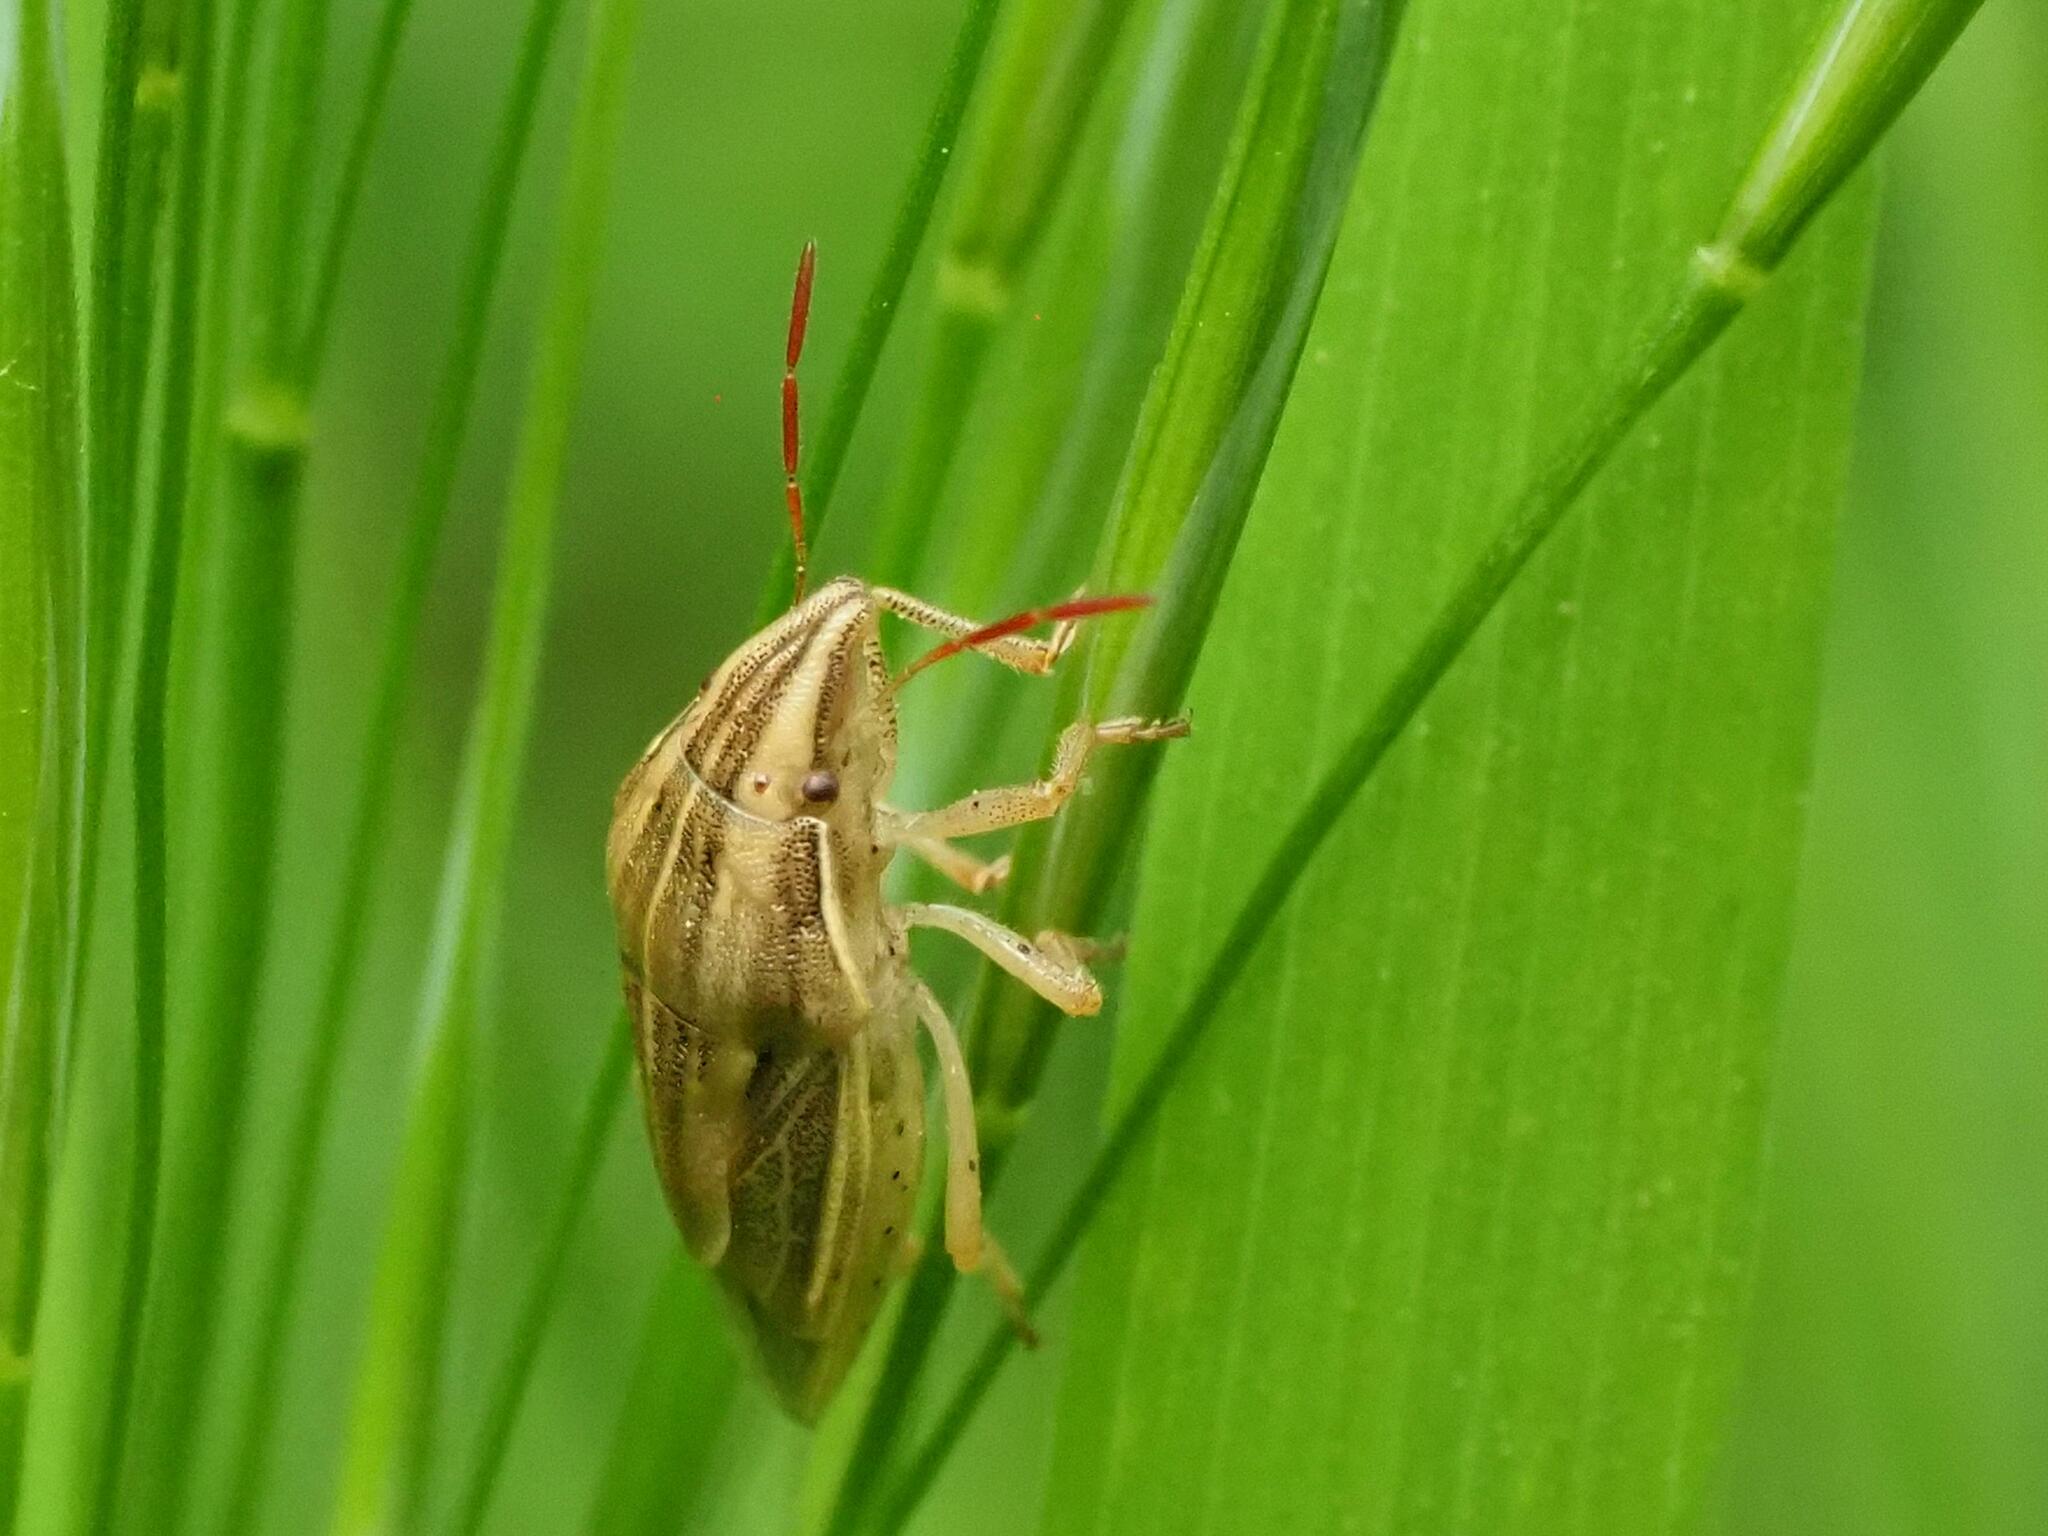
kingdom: Animalia
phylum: Arthropoda
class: Insecta
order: Hemiptera
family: Pentatomidae
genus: Aelia
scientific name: Aelia acuminata
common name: Bishop's mitre
